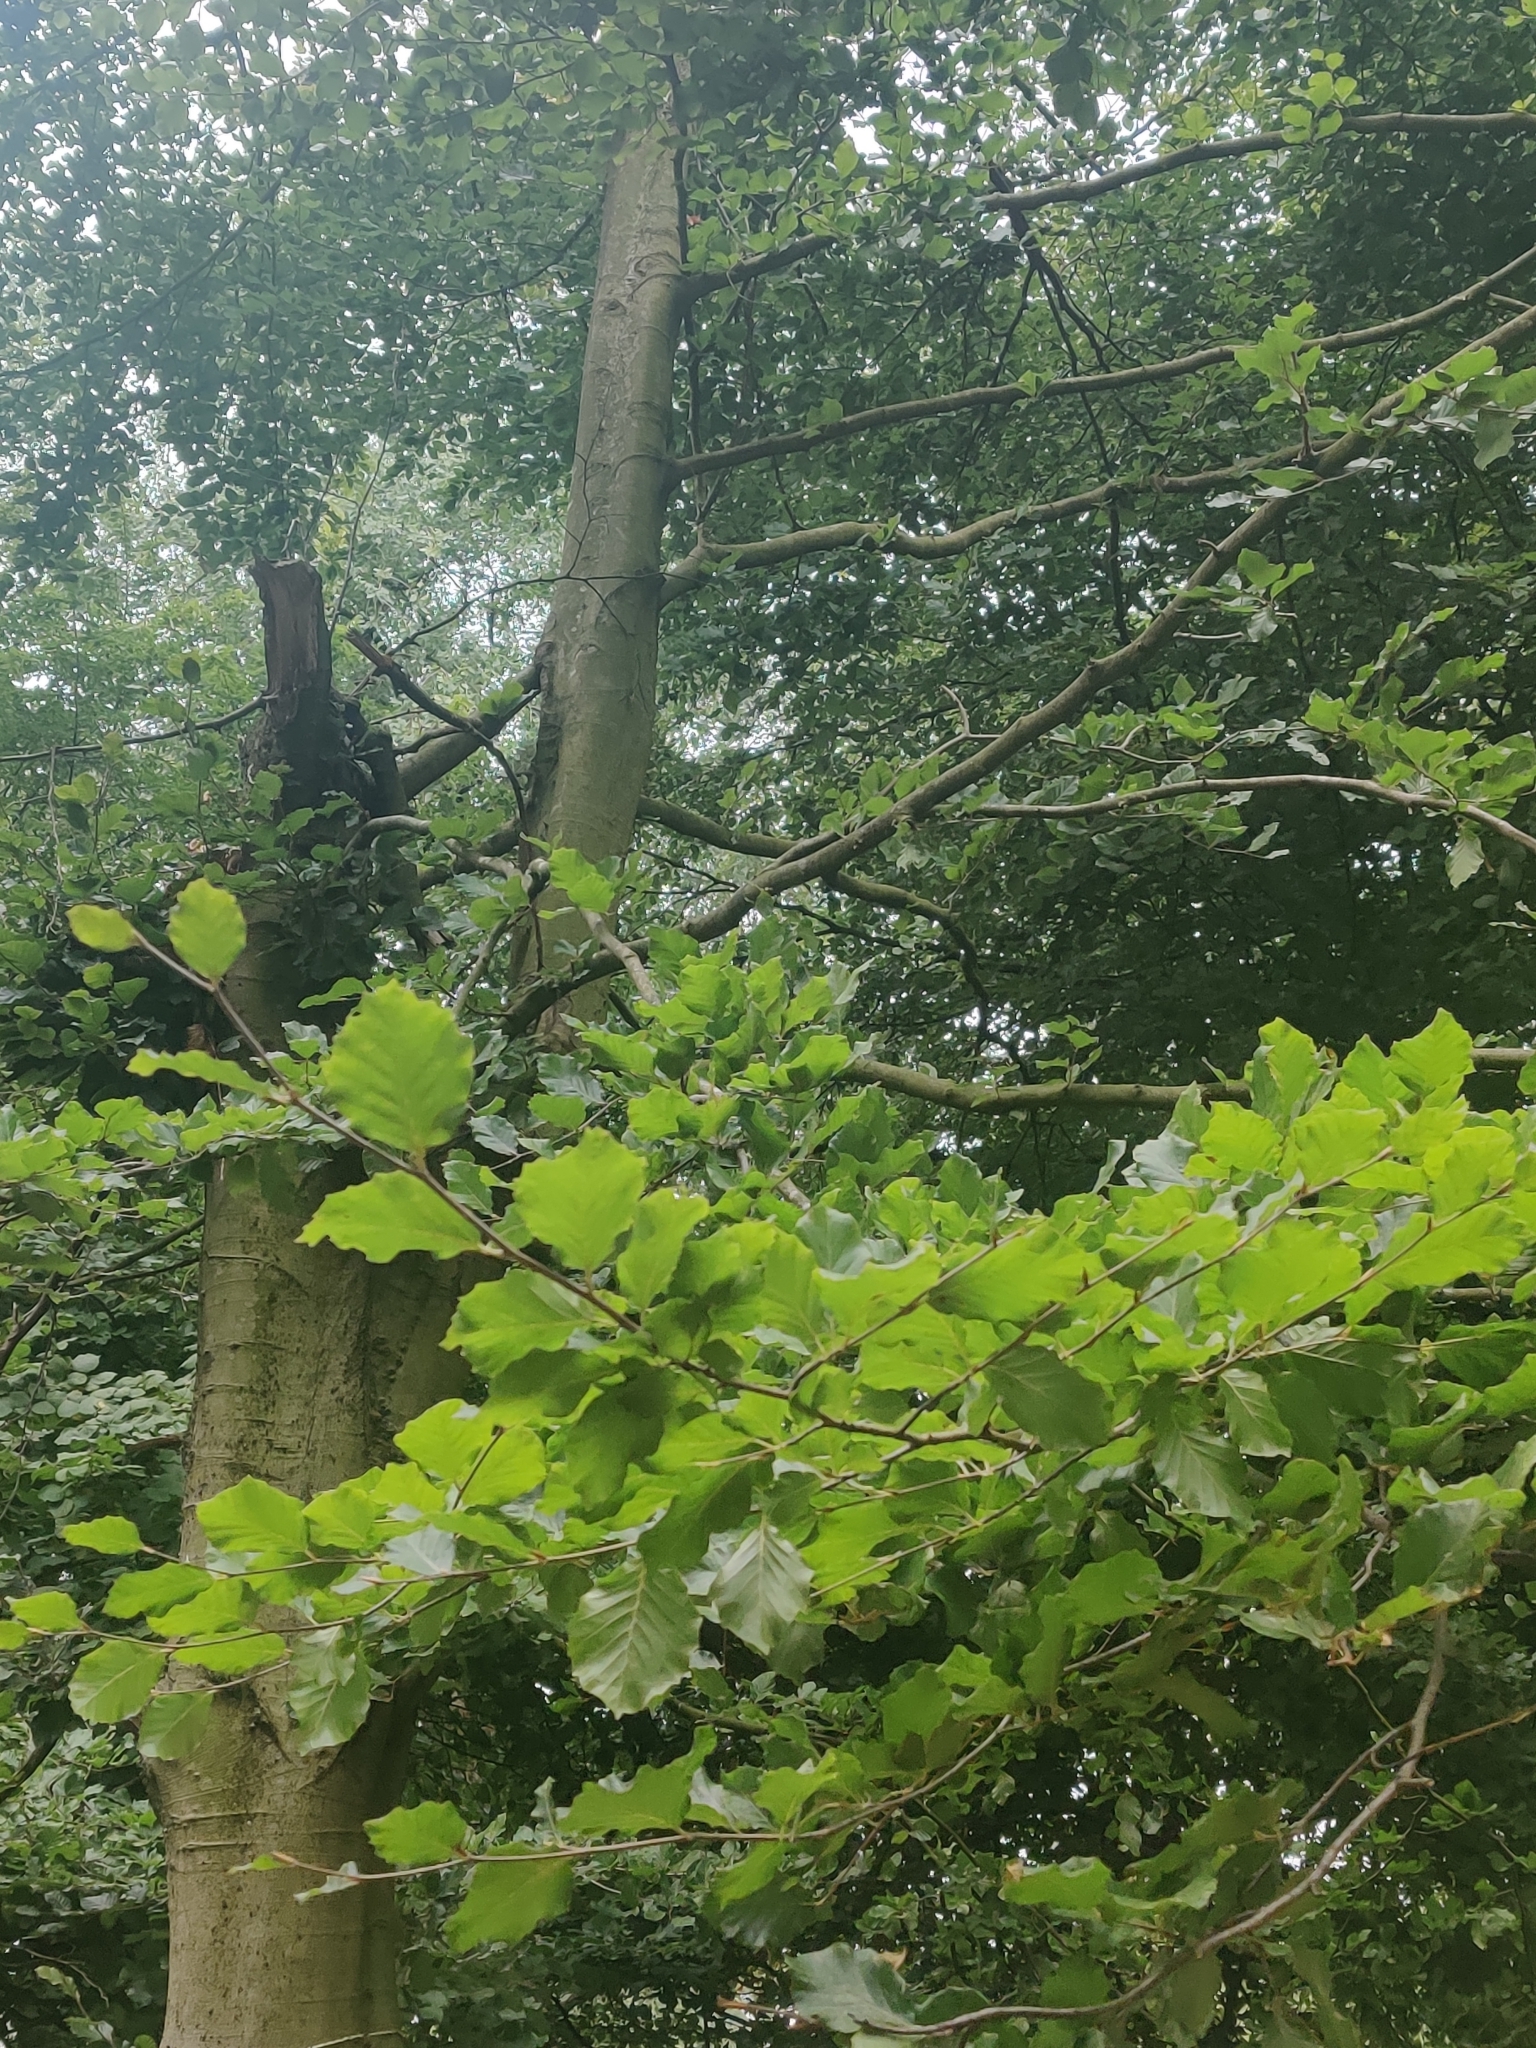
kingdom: Plantae
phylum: Tracheophyta
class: Magnoliopsida
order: Fagales
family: Fagaceae
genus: Fagus
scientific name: Fagus sylvatica
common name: Beech
